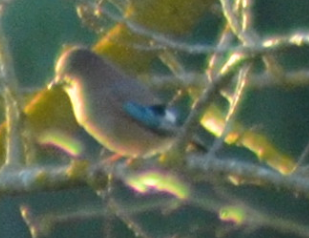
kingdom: Animalia
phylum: Chordata
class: Aves
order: Passeriformes
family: Corvidae
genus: Garrulus
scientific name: Garrulus glandarius
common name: Eurasian jay
